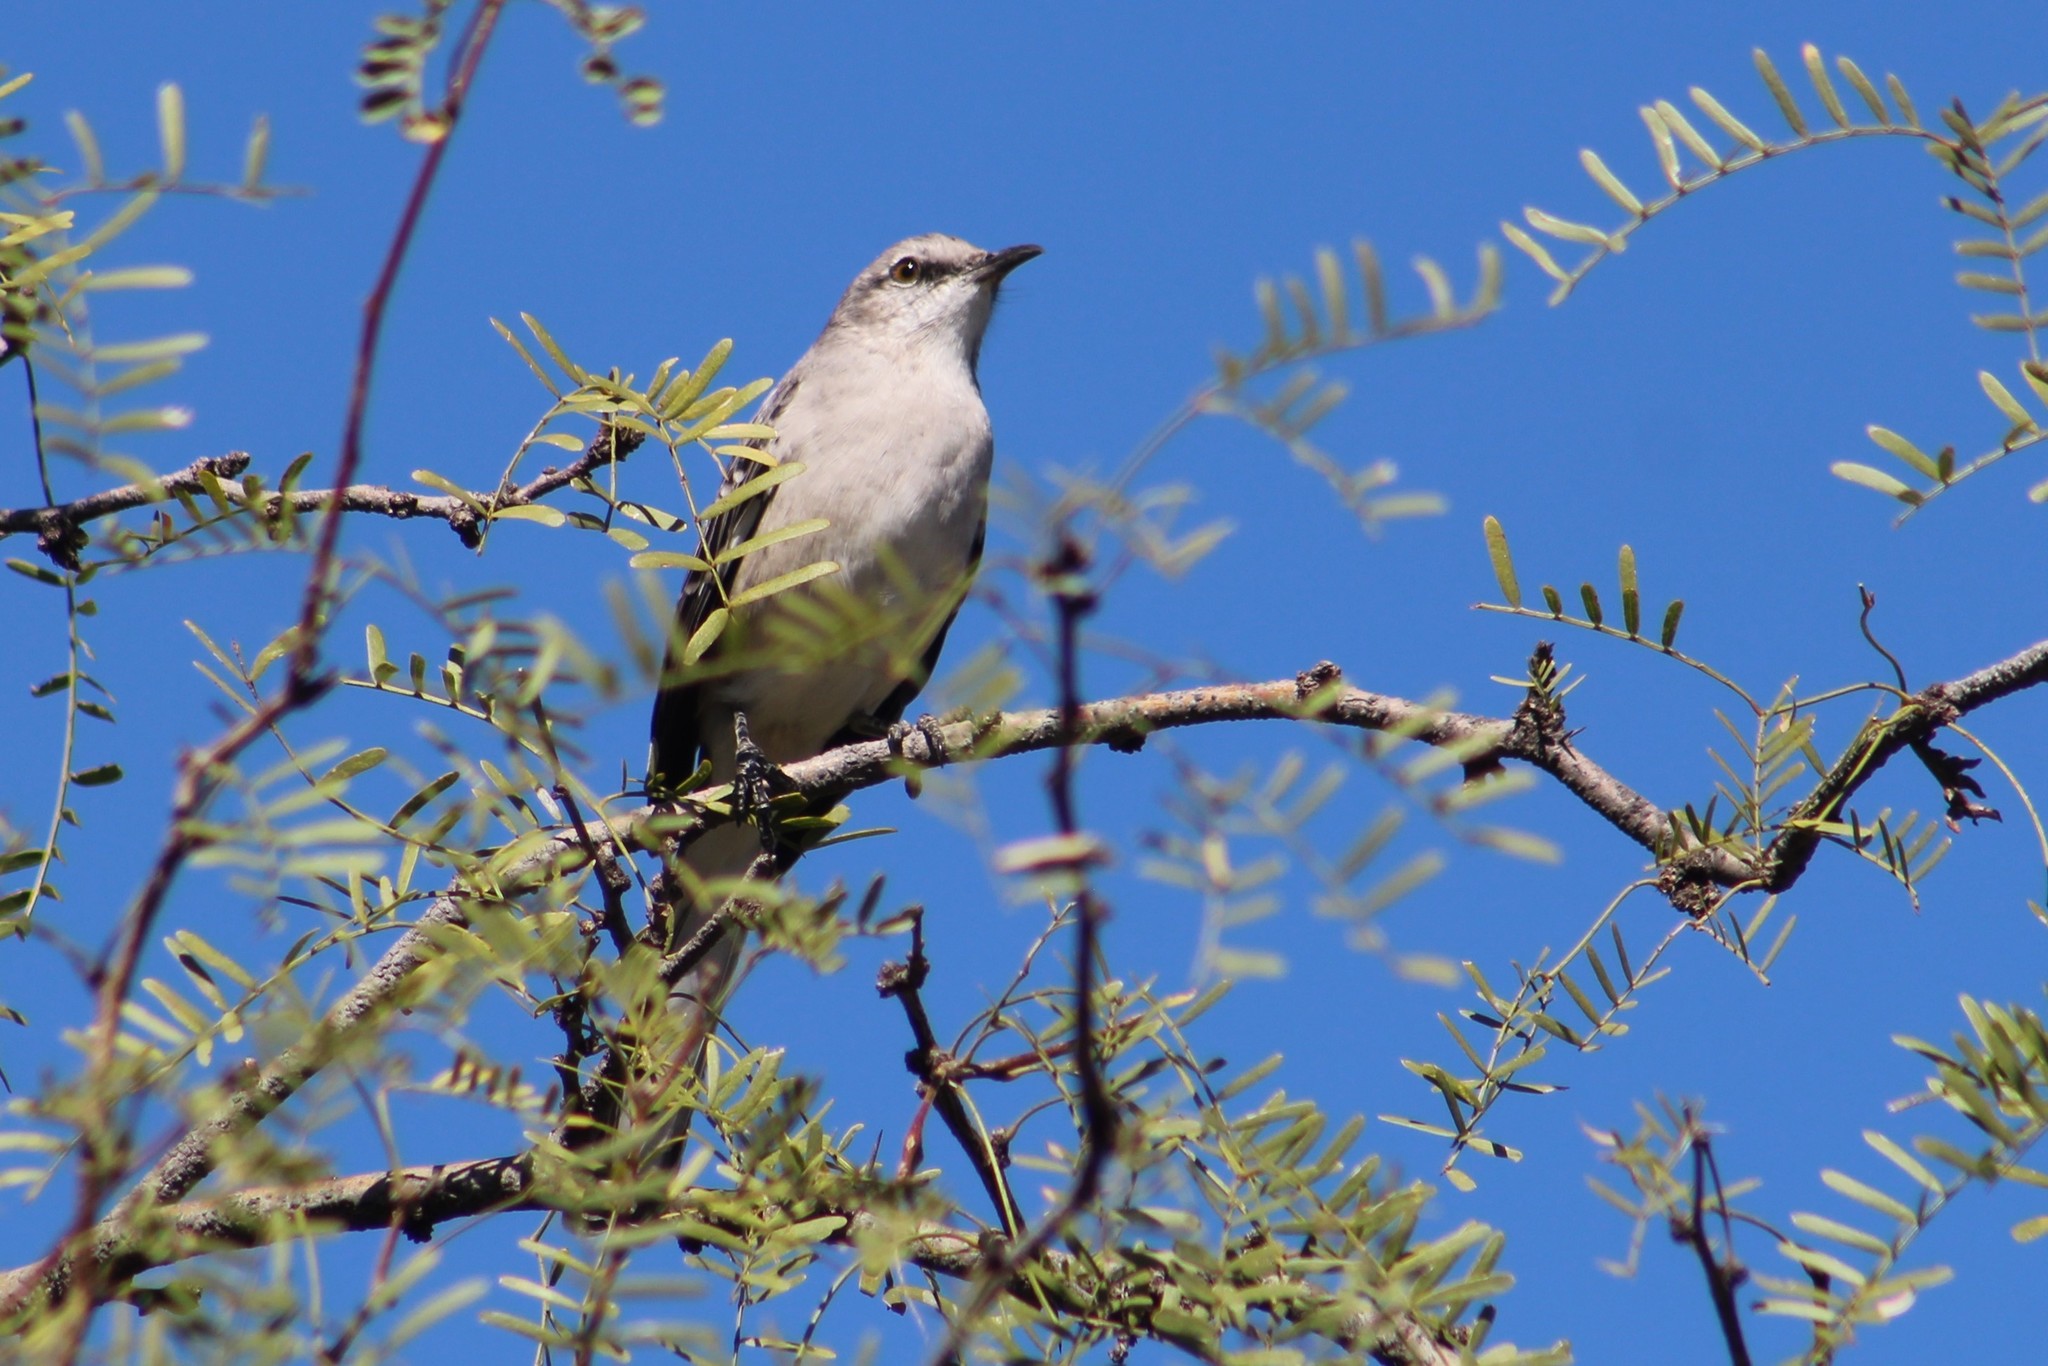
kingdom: Animalia
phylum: Chordata
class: Aves
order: Passeriformes
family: Mimidae
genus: Mimus
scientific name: Mimus polyglottos
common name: Northern mockingbird
